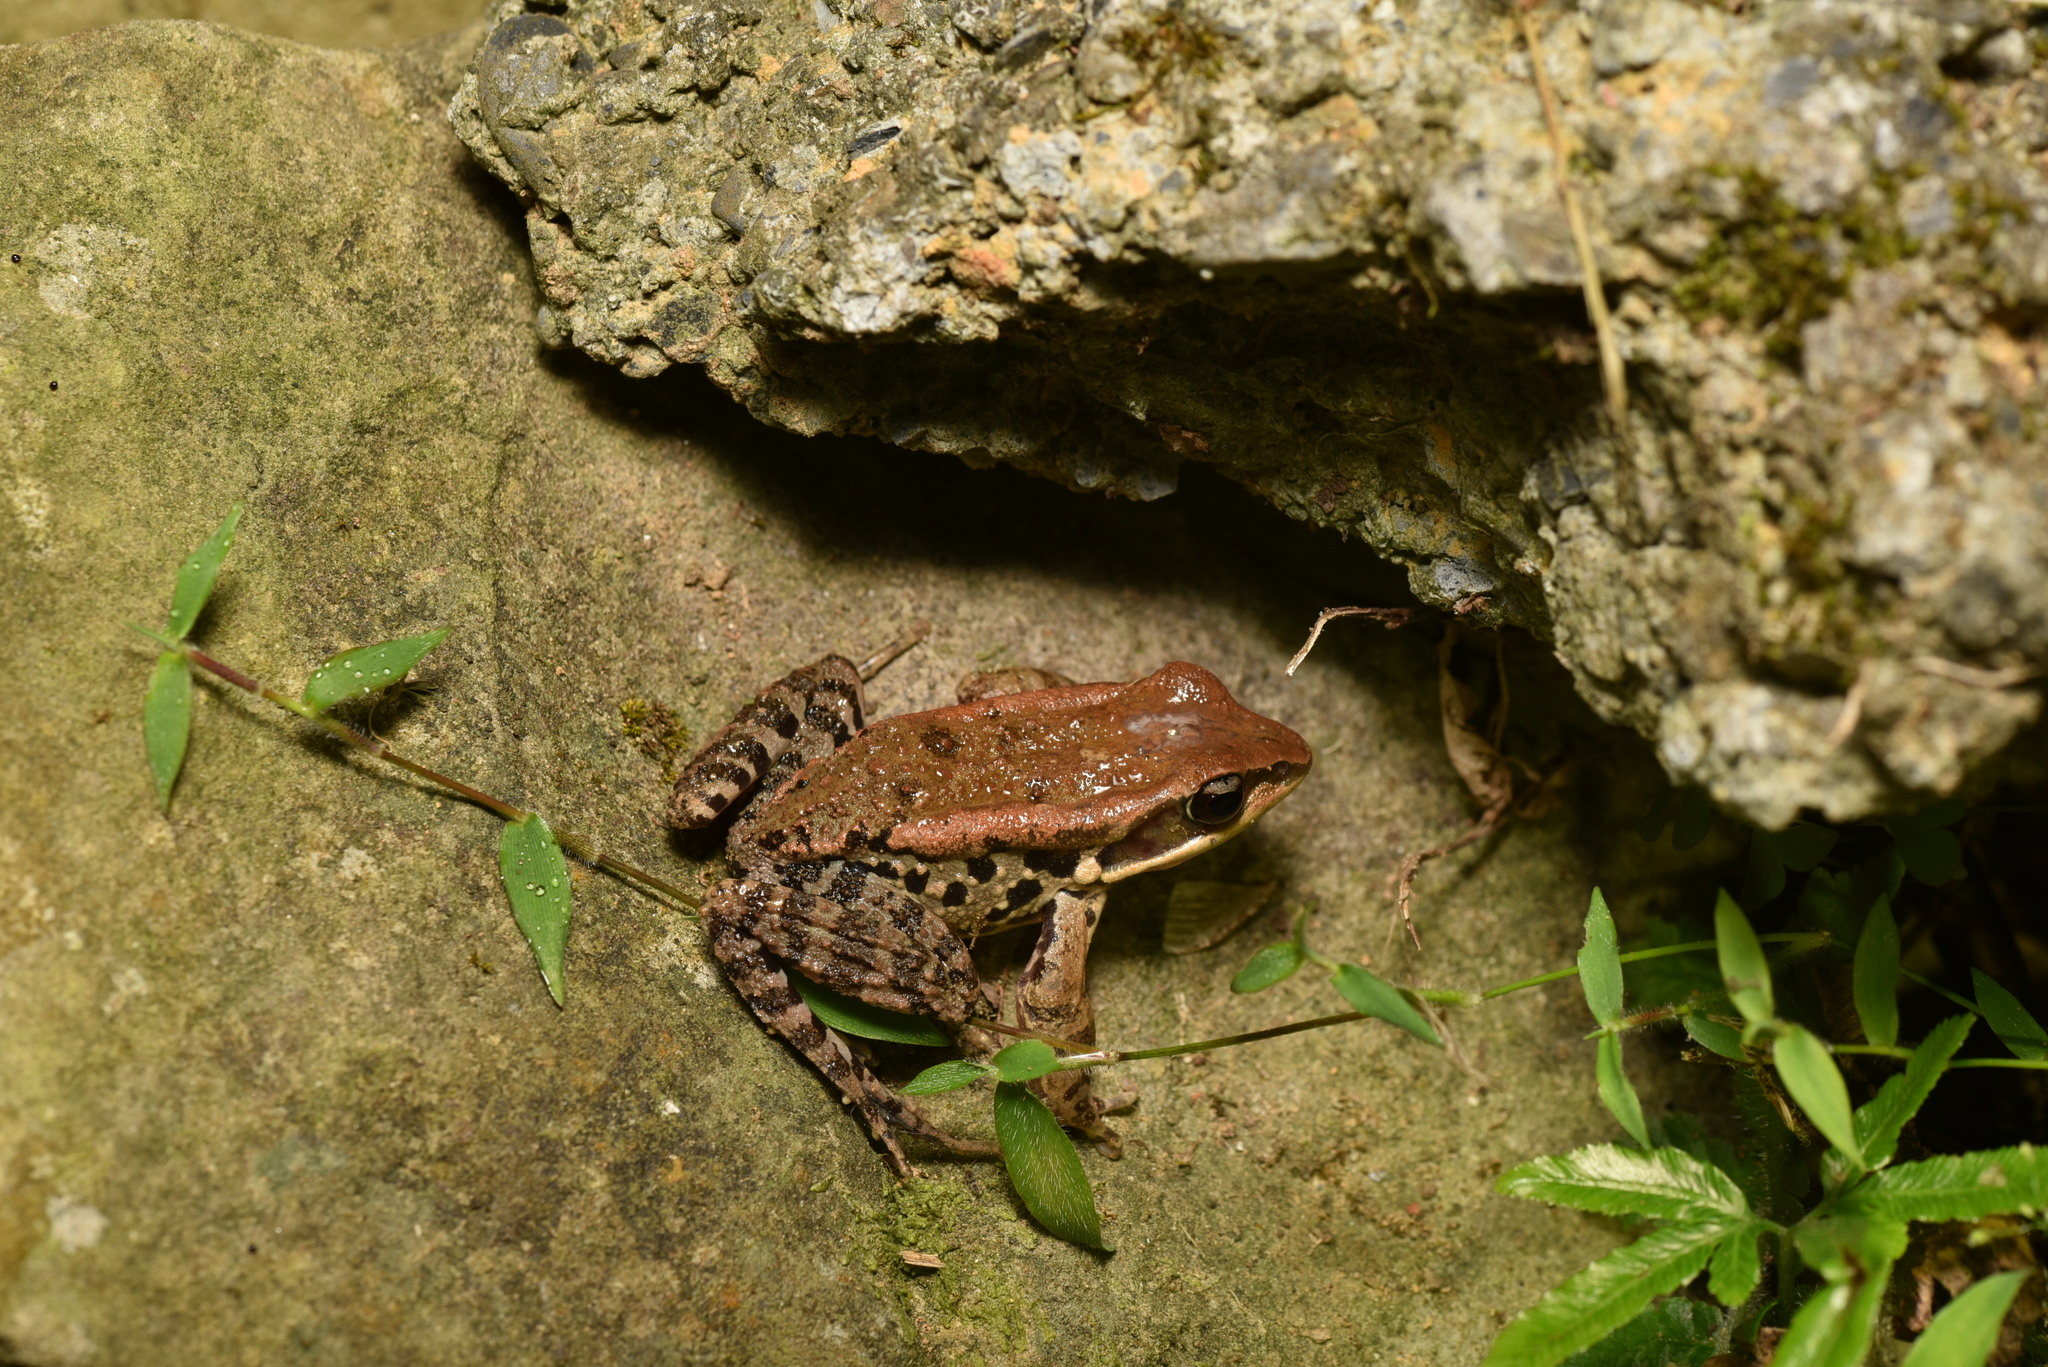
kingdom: Animalia
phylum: Chordata
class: Amphibia
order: Anura
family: Ranidae
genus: Hylarana
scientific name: Hylarana latouchii
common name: Broad-folded frog
